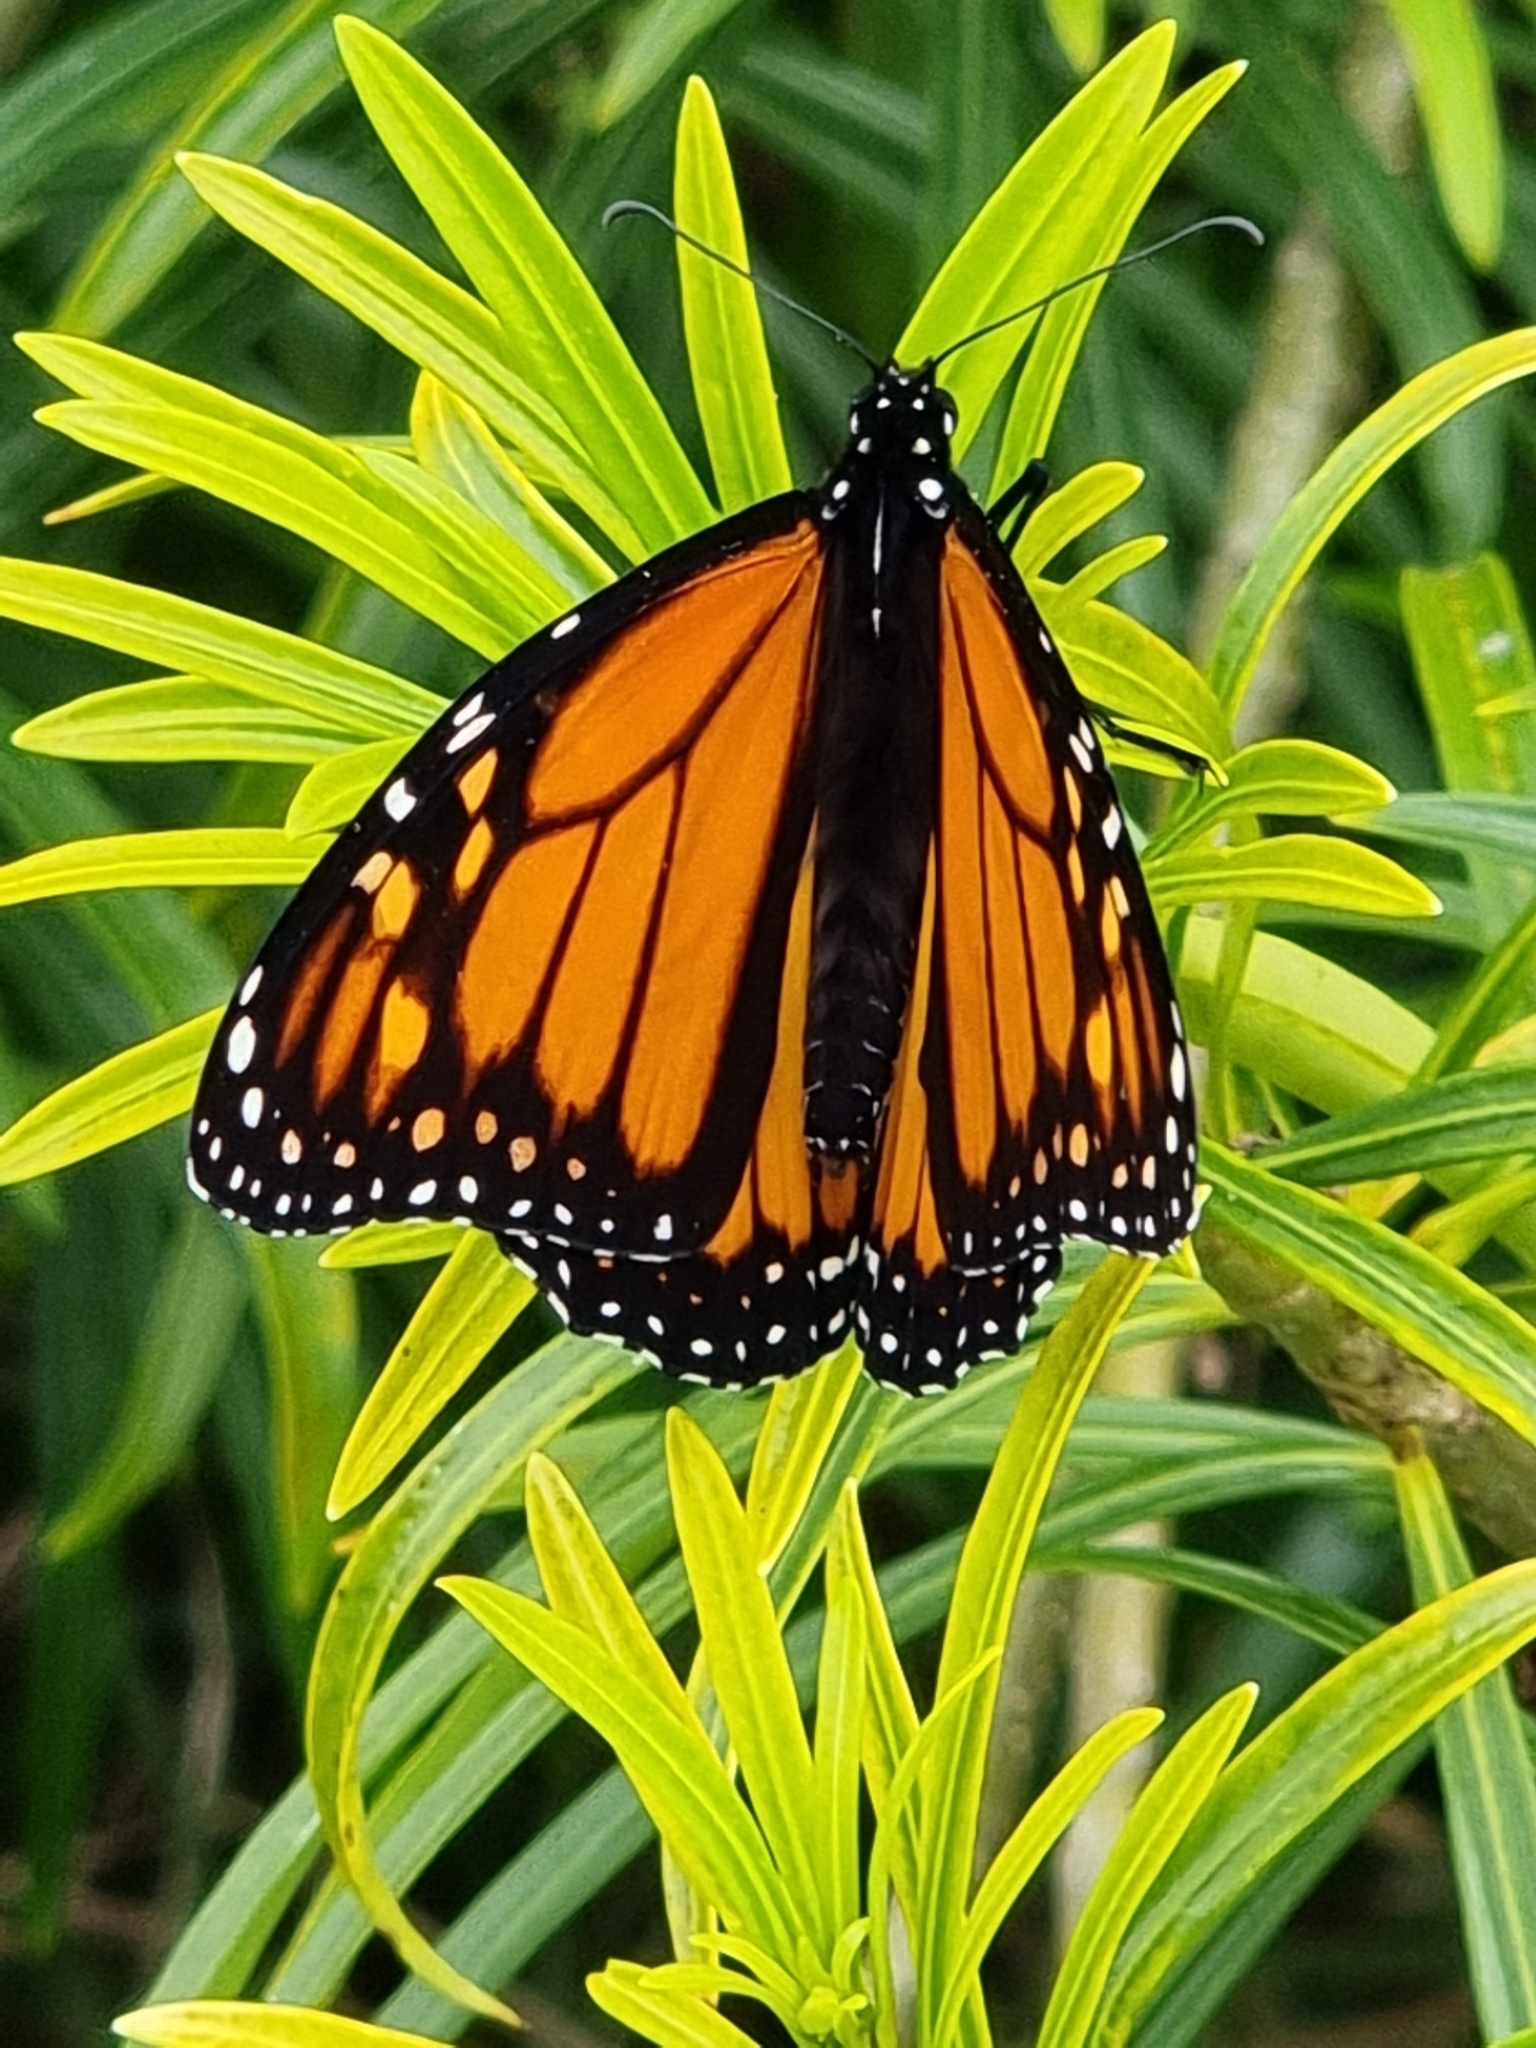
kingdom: Animalia
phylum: Arthropoda
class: Insecta
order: Lepidoptera
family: Nymphalidae
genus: Danaus
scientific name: Danaus plexippus
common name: Monarch
